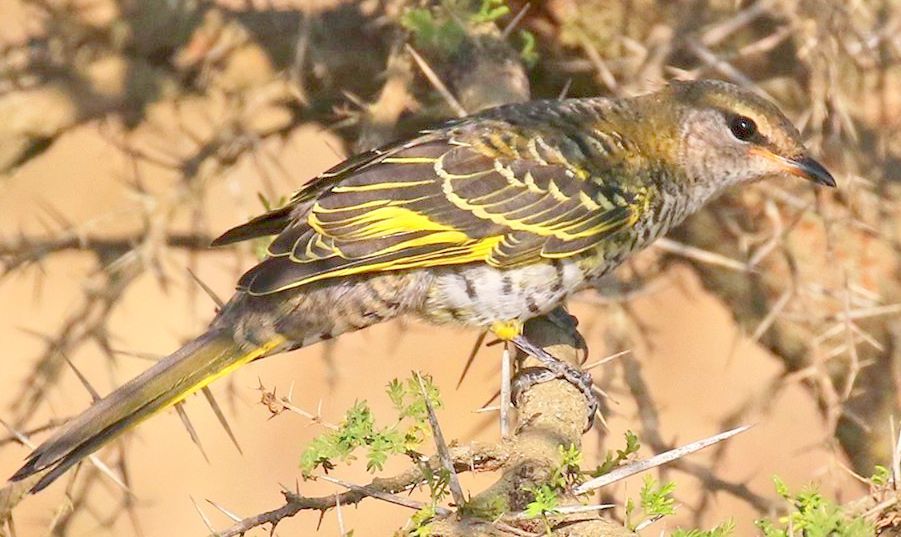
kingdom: Animalia
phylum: Chordata
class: Aves
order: Passeriformes
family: Campephagidae
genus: Campephaga
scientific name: Campephaga flava
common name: Black cuckooshrike
